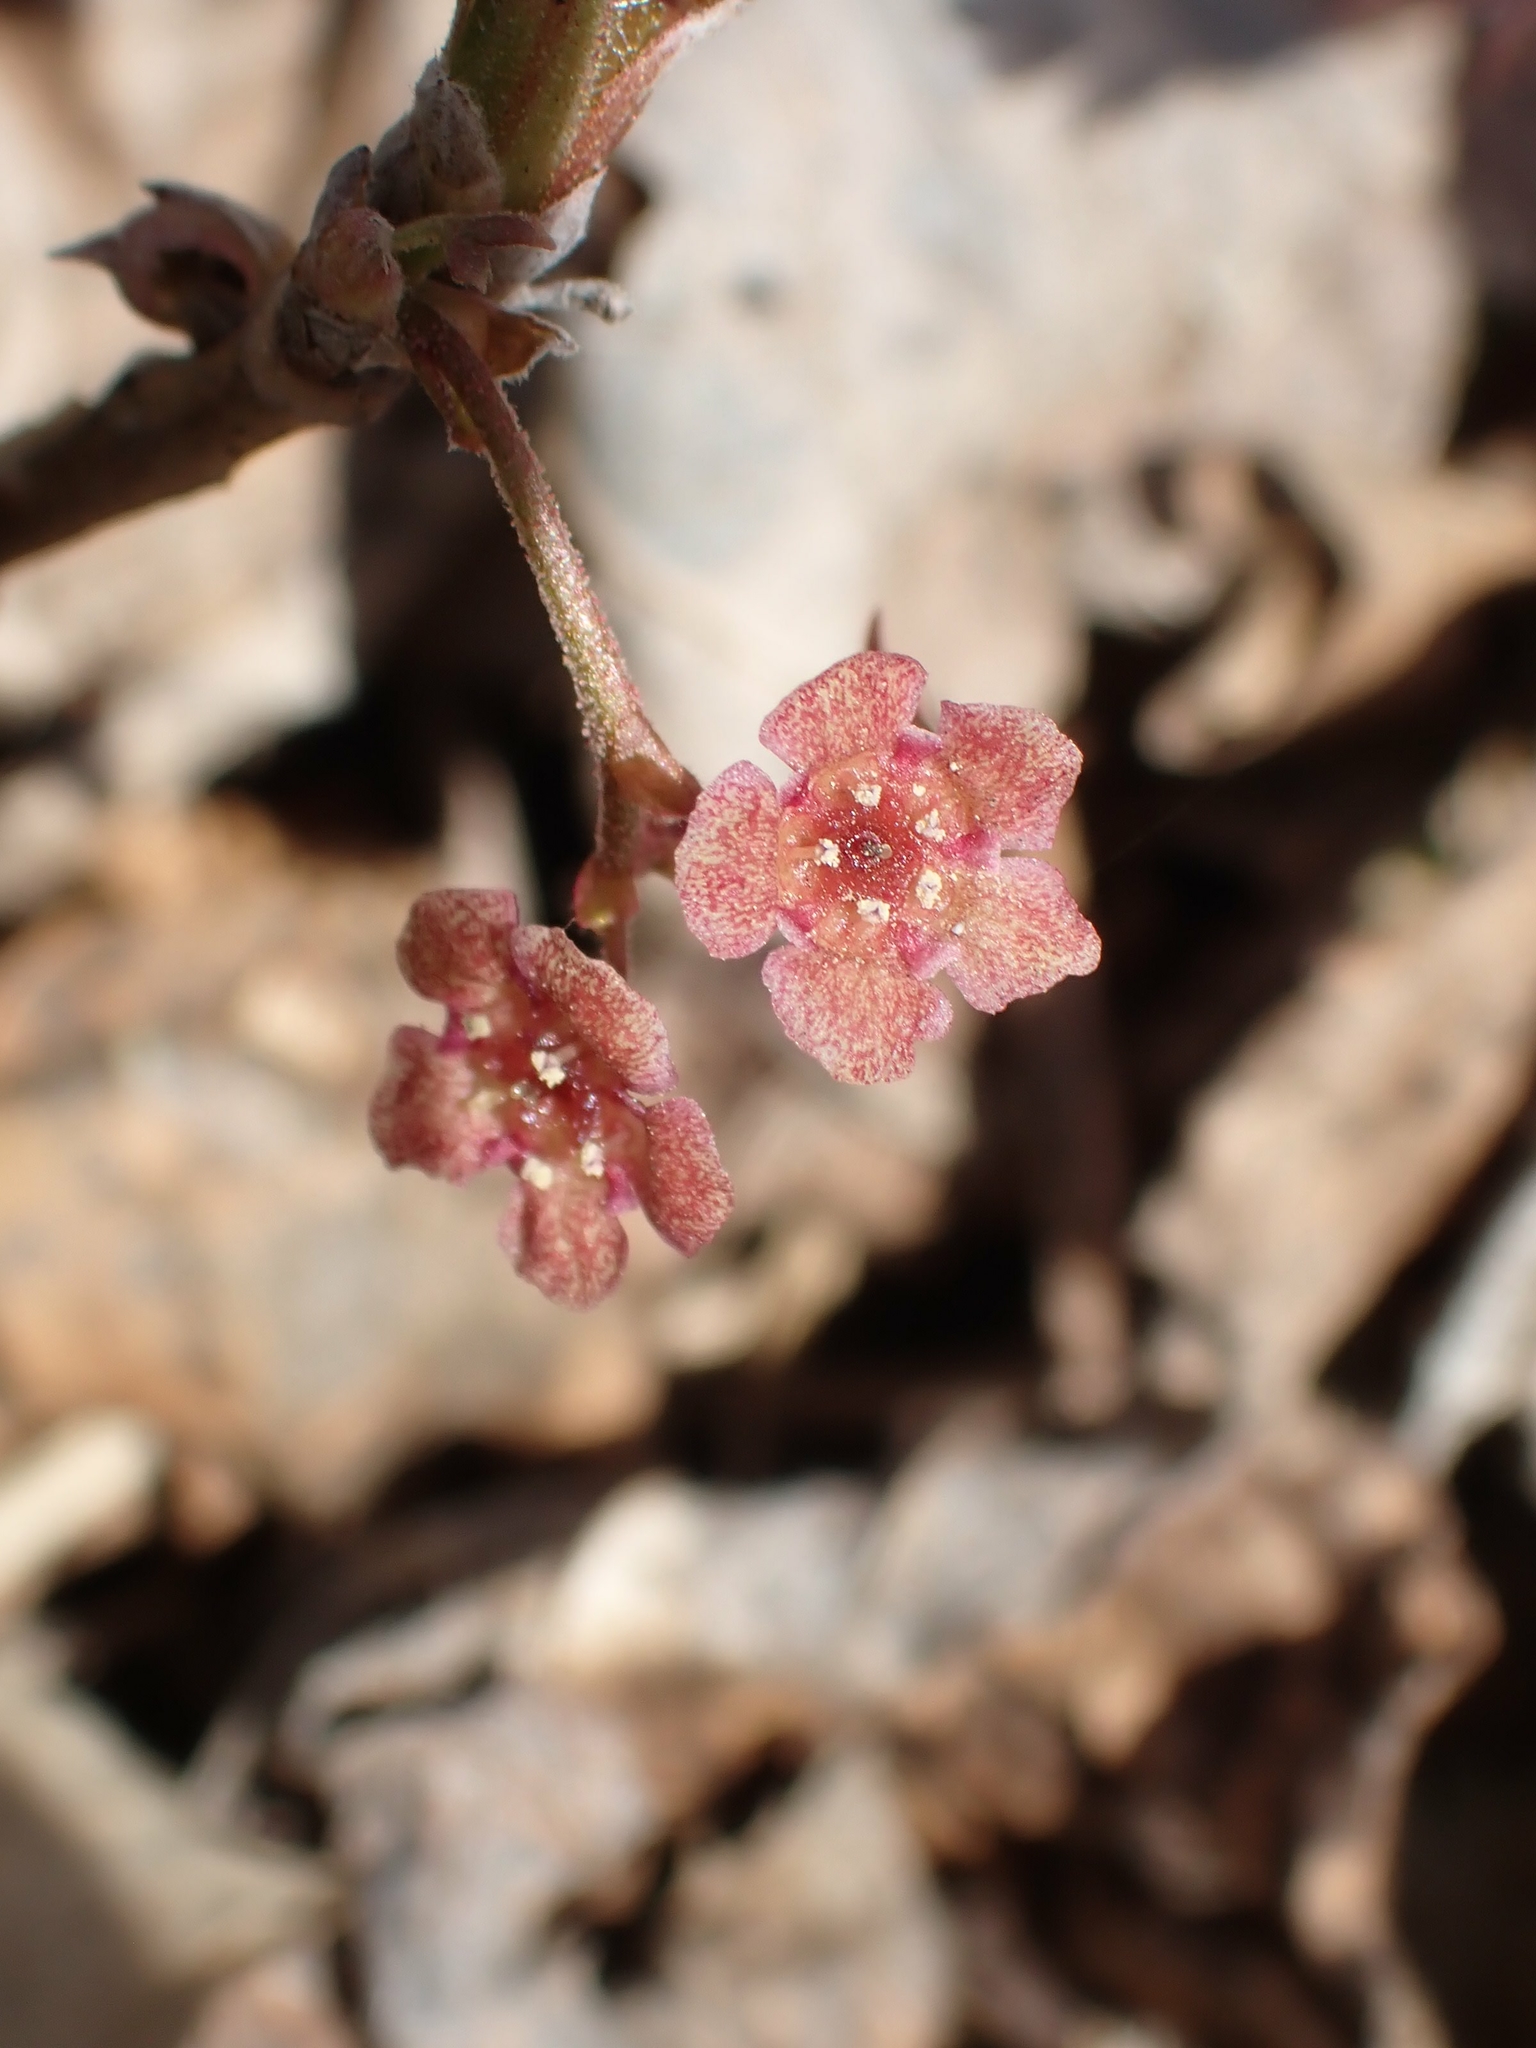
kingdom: Plantae
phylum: Tracheophyta
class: Magnoliopsida
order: Saxifragales
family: Grossulariaceae
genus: Ribes
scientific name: Ribes triste
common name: Swamp red currant
